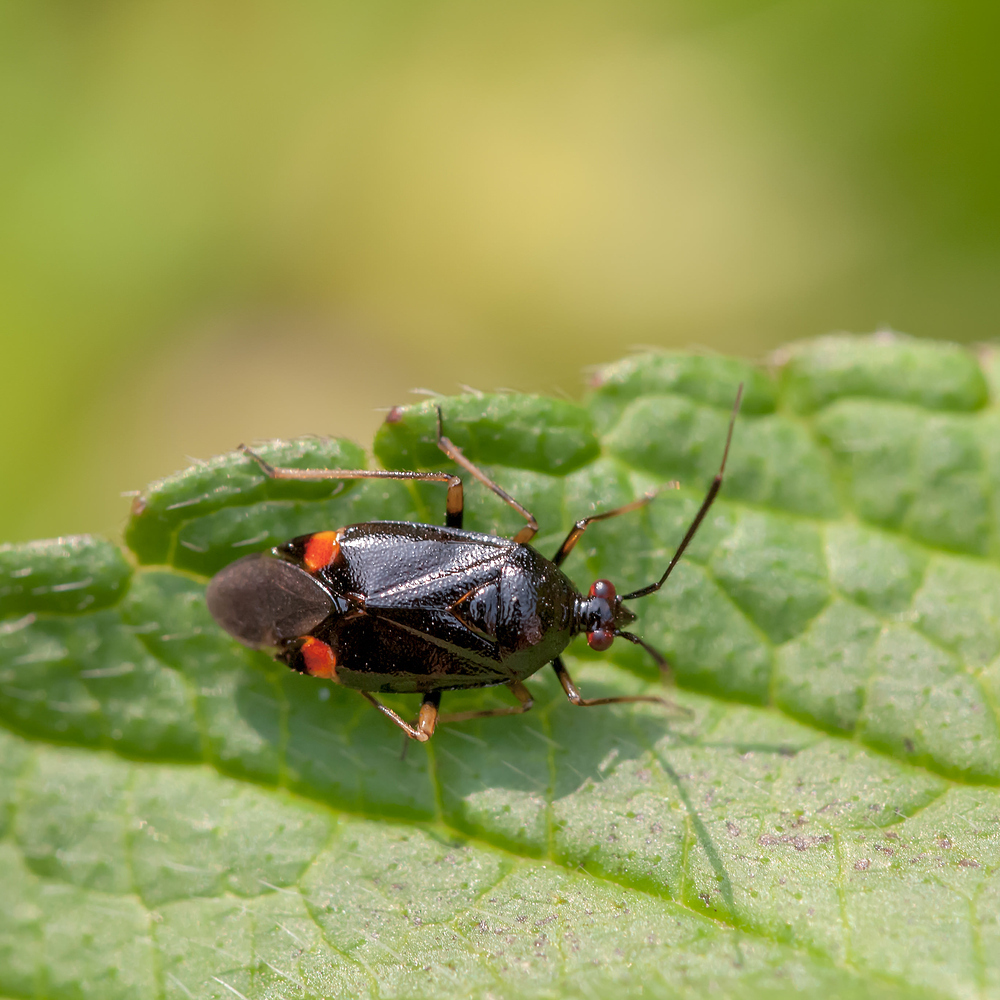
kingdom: Animalia
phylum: Arthropoda
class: Insecta
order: Hemiptera
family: Miridae
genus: Deraeocoris
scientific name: Deraeocoris ruber
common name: Plant bug
